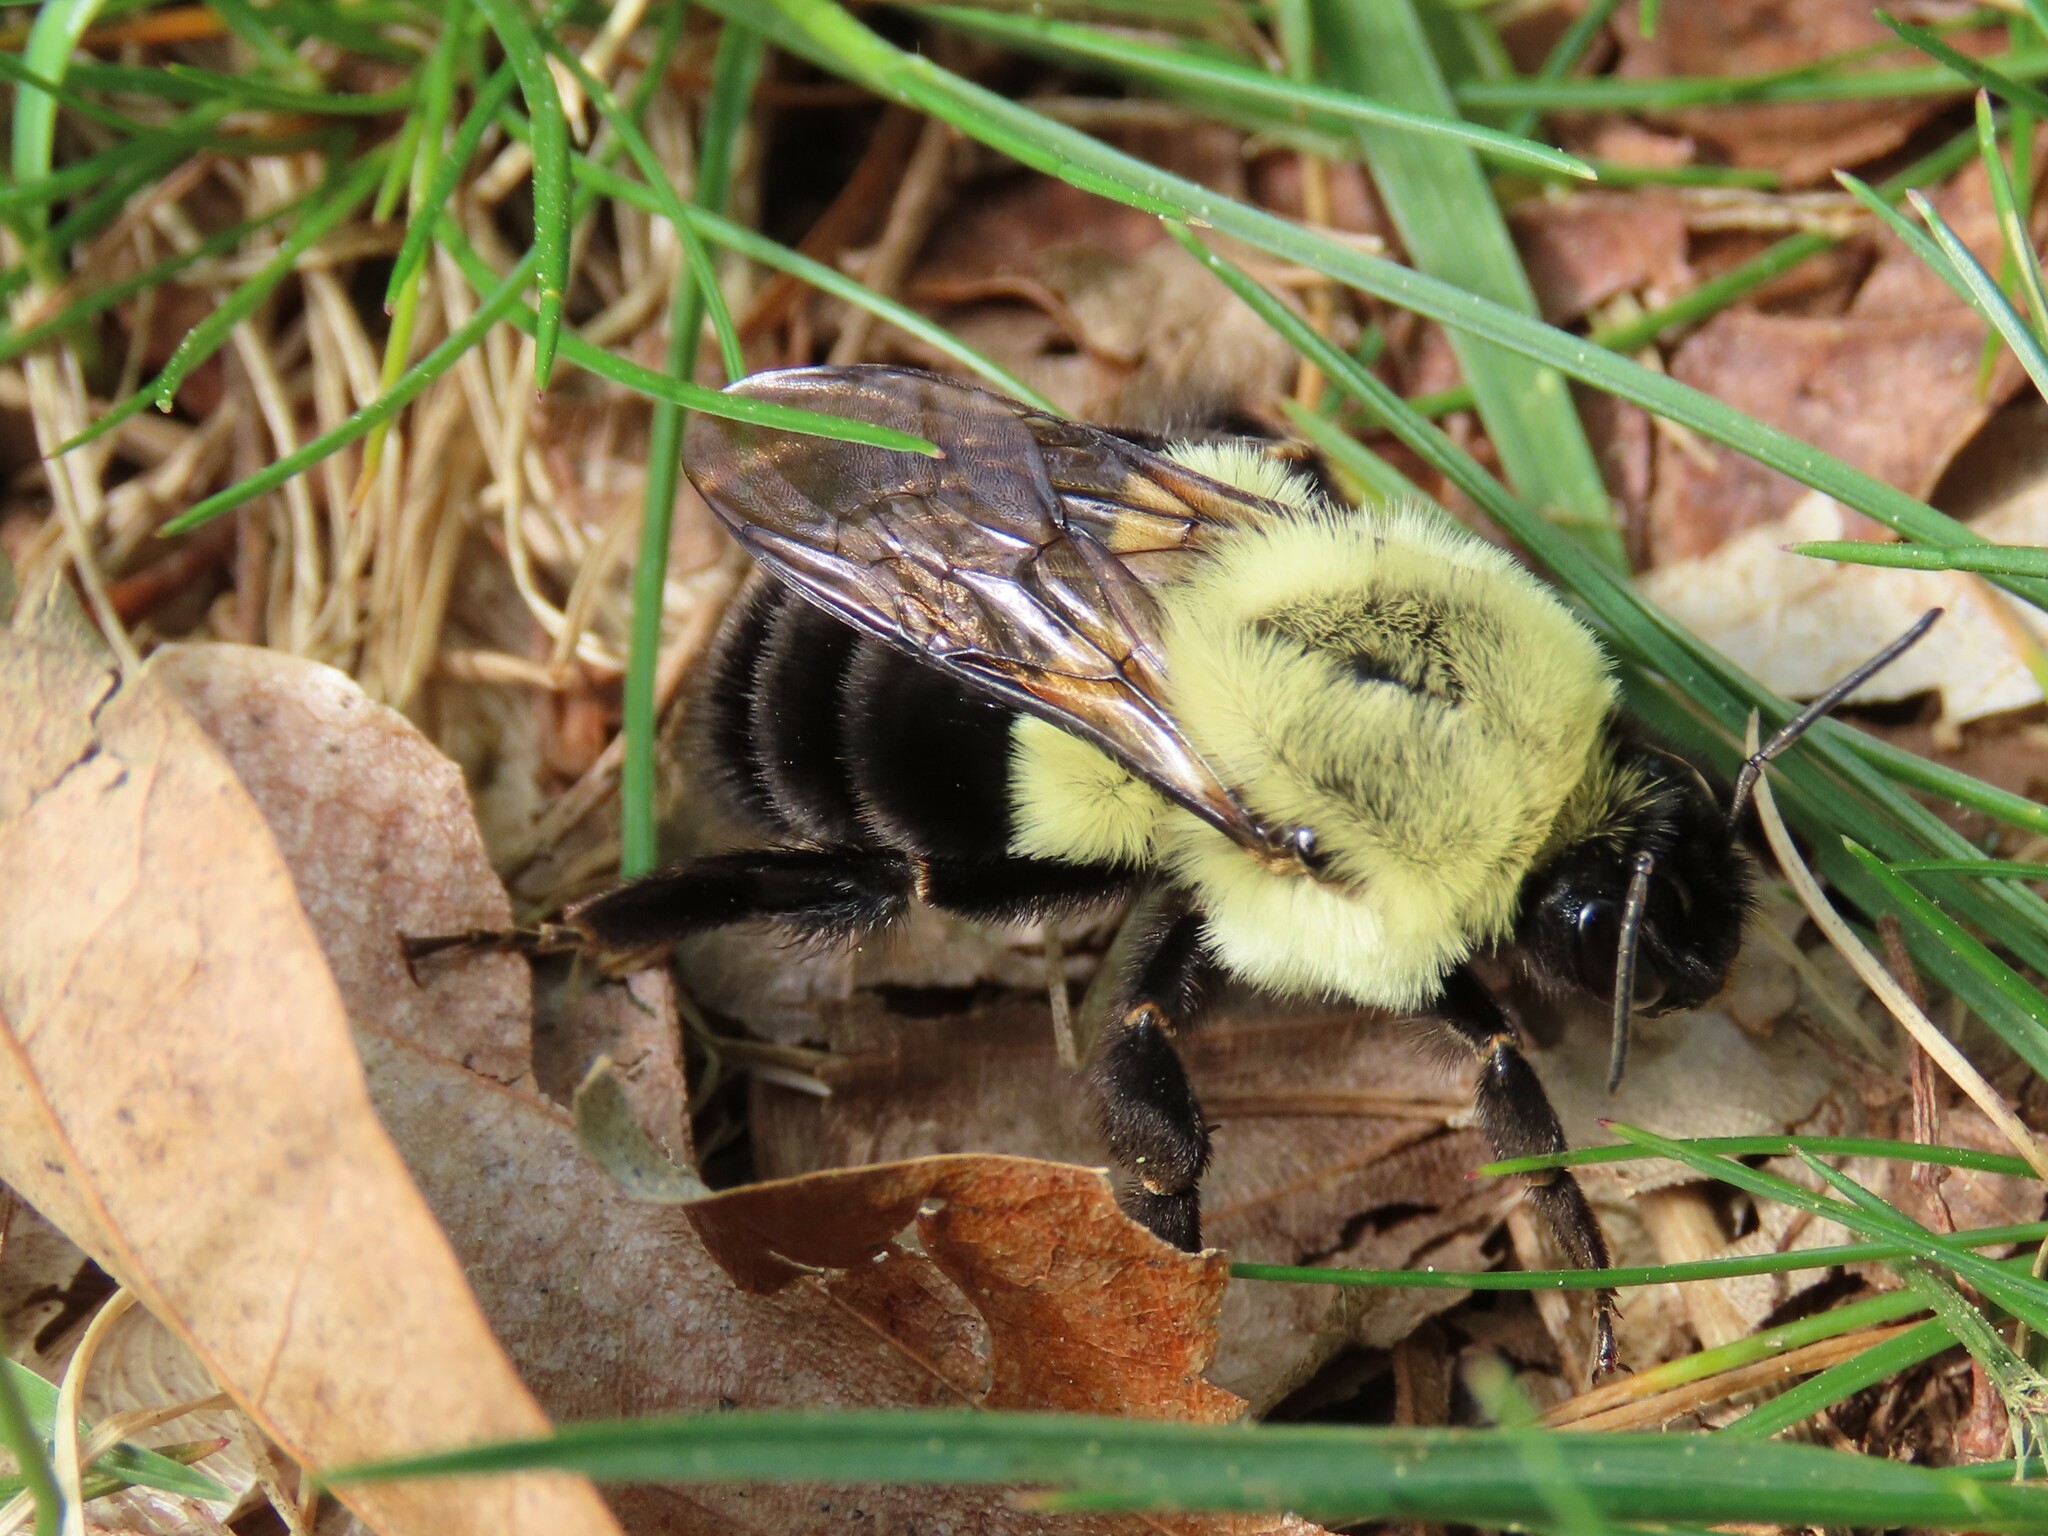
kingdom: Animalia
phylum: Arthropoda
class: Insecta
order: Hymenoptera
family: Apidae
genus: Bombus
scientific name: Bombus impatiens
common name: Common eastern bumble bee
